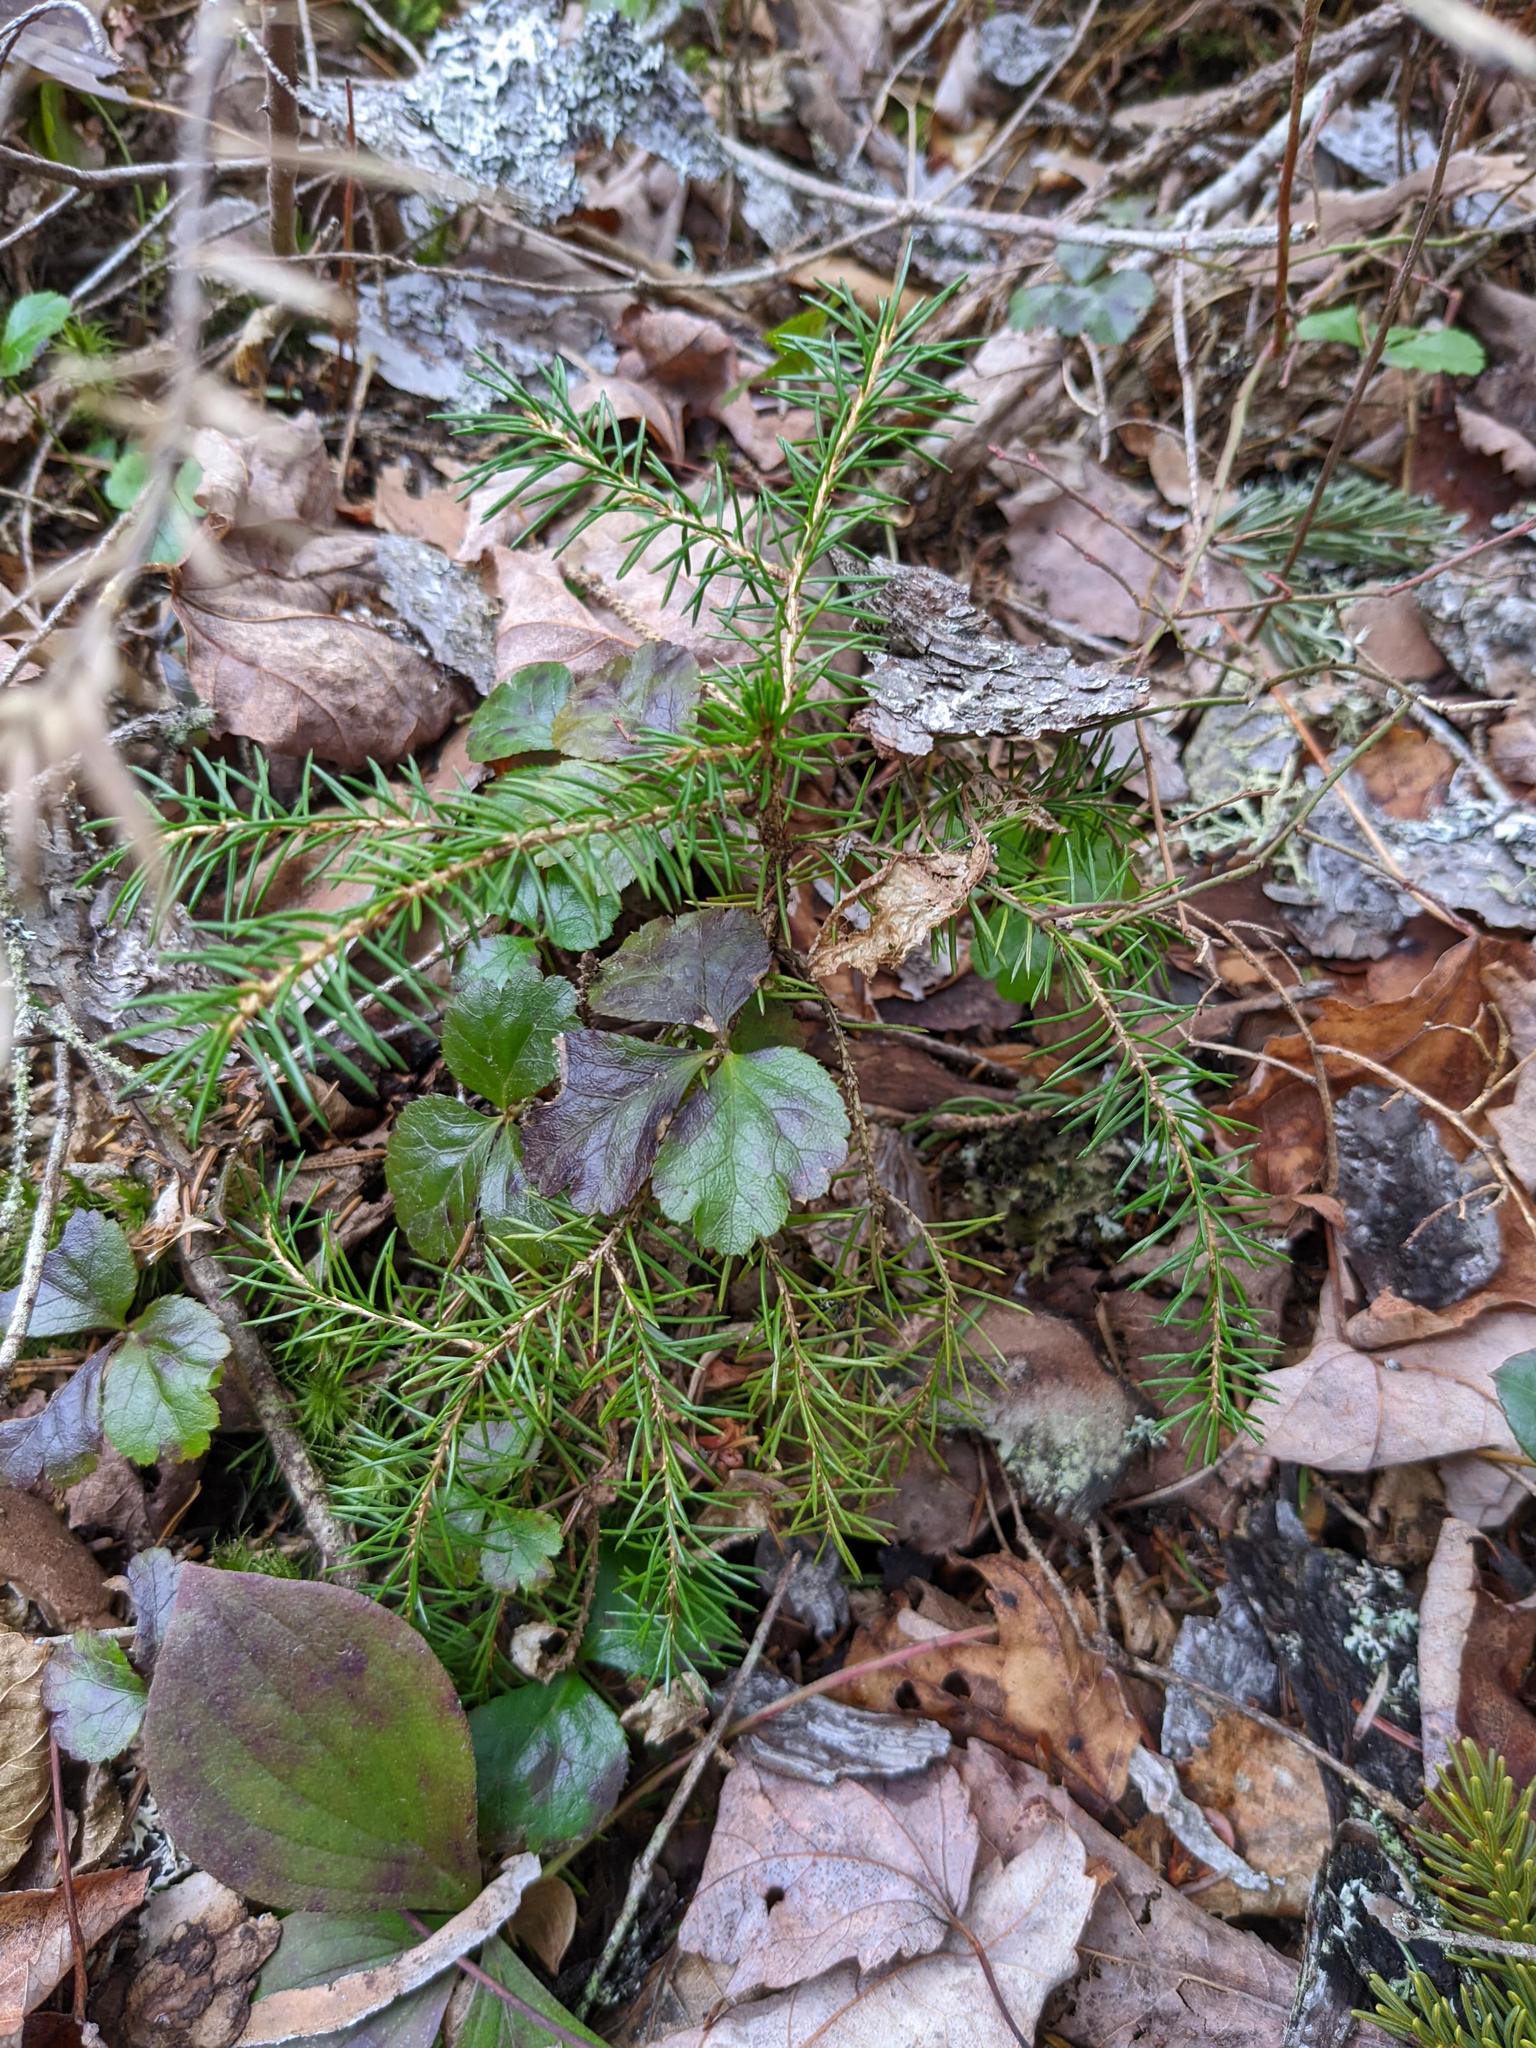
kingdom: Plantae
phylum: Tracheophyta
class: Magnoliopsida
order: Ranunculales
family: Ranunculaceae
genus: Coptis
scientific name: Coptis trifolia
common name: Canker-root
